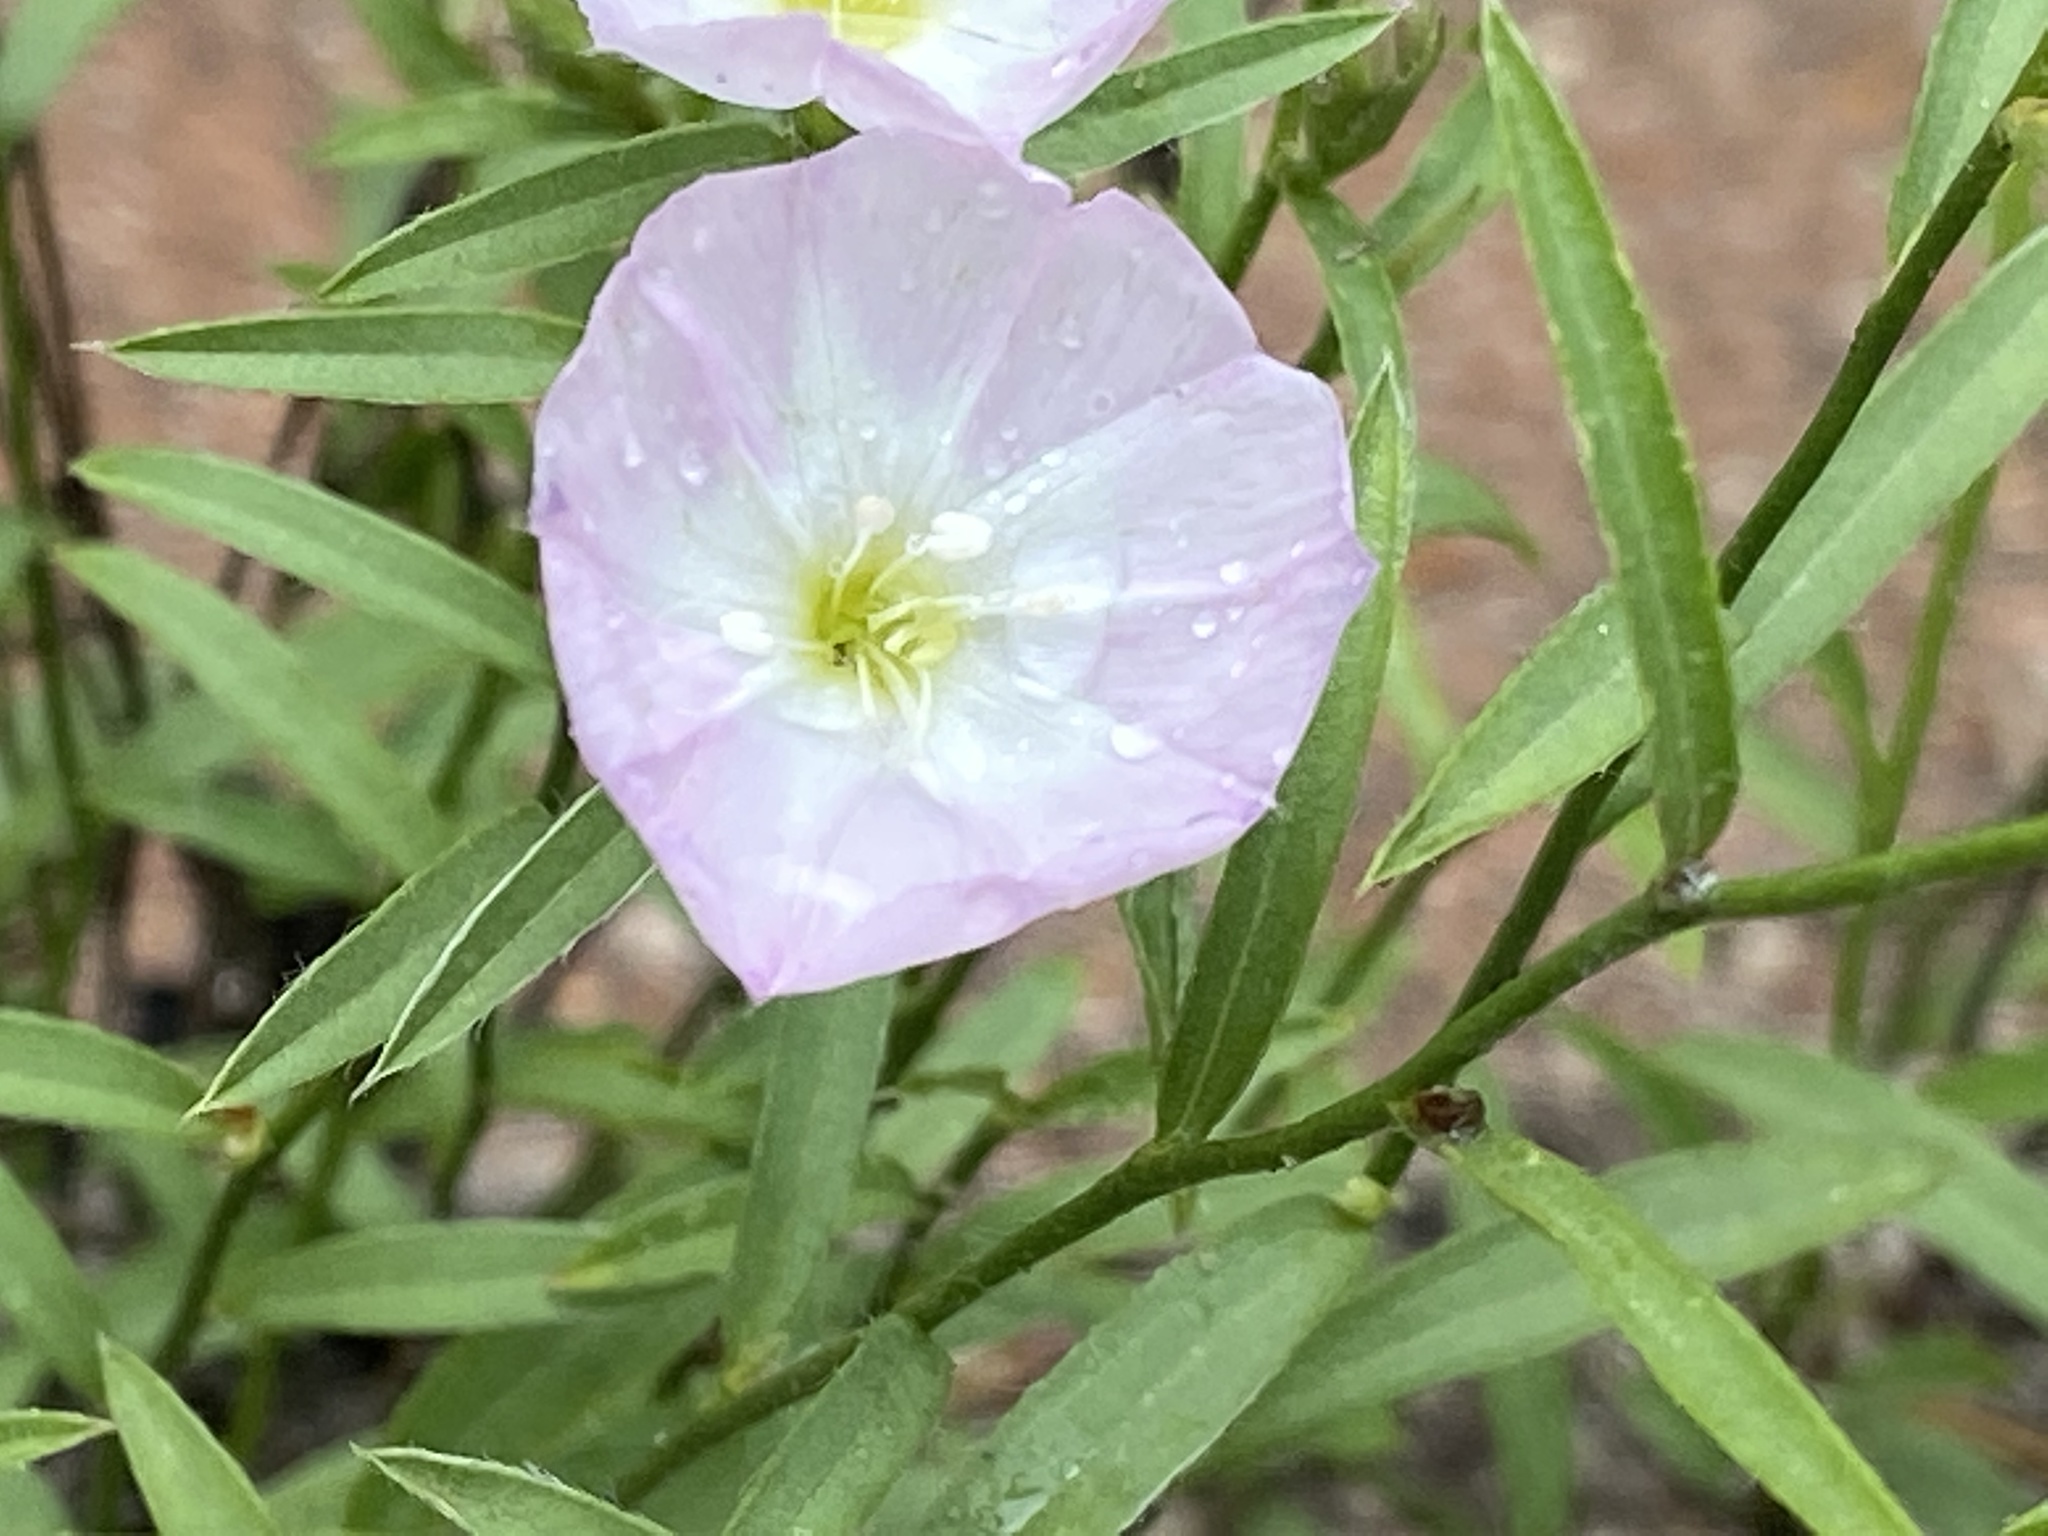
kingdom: Plantae
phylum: Tracheophyta
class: Magnoliopsida
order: Solanales
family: Convolvulaceae
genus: Evolvulus
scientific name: Evolvulus sericeus
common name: Blue dots
